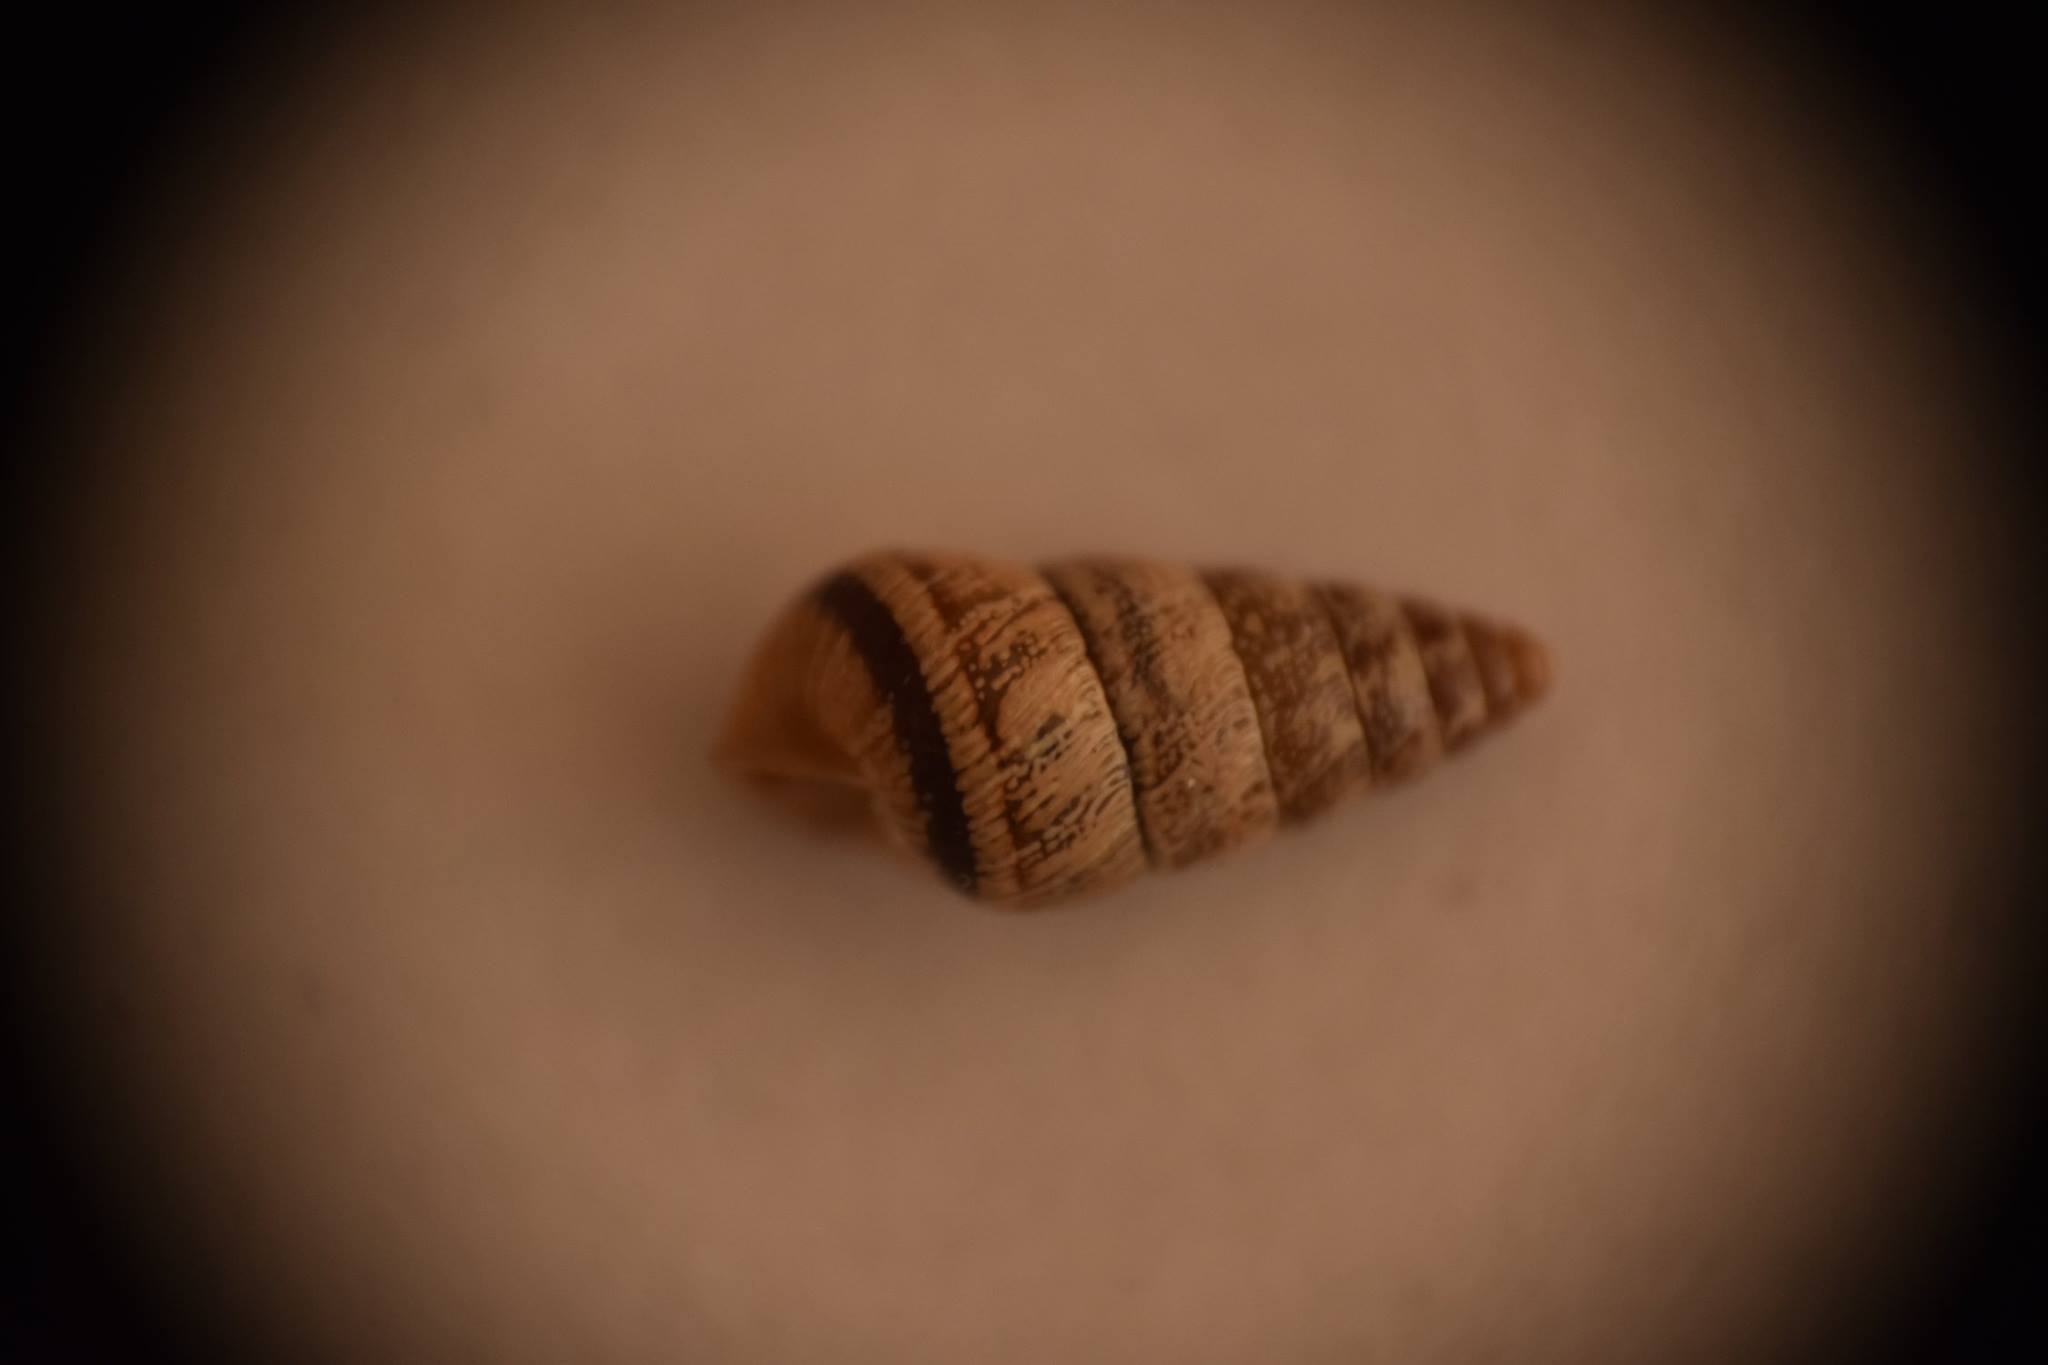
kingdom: Animalia
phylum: Mollusca
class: Gastropoda
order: Stylommatophora
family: Geomitridae
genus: Cochlicella
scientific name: Cochlicella barbara
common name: Potbellied helicellid
